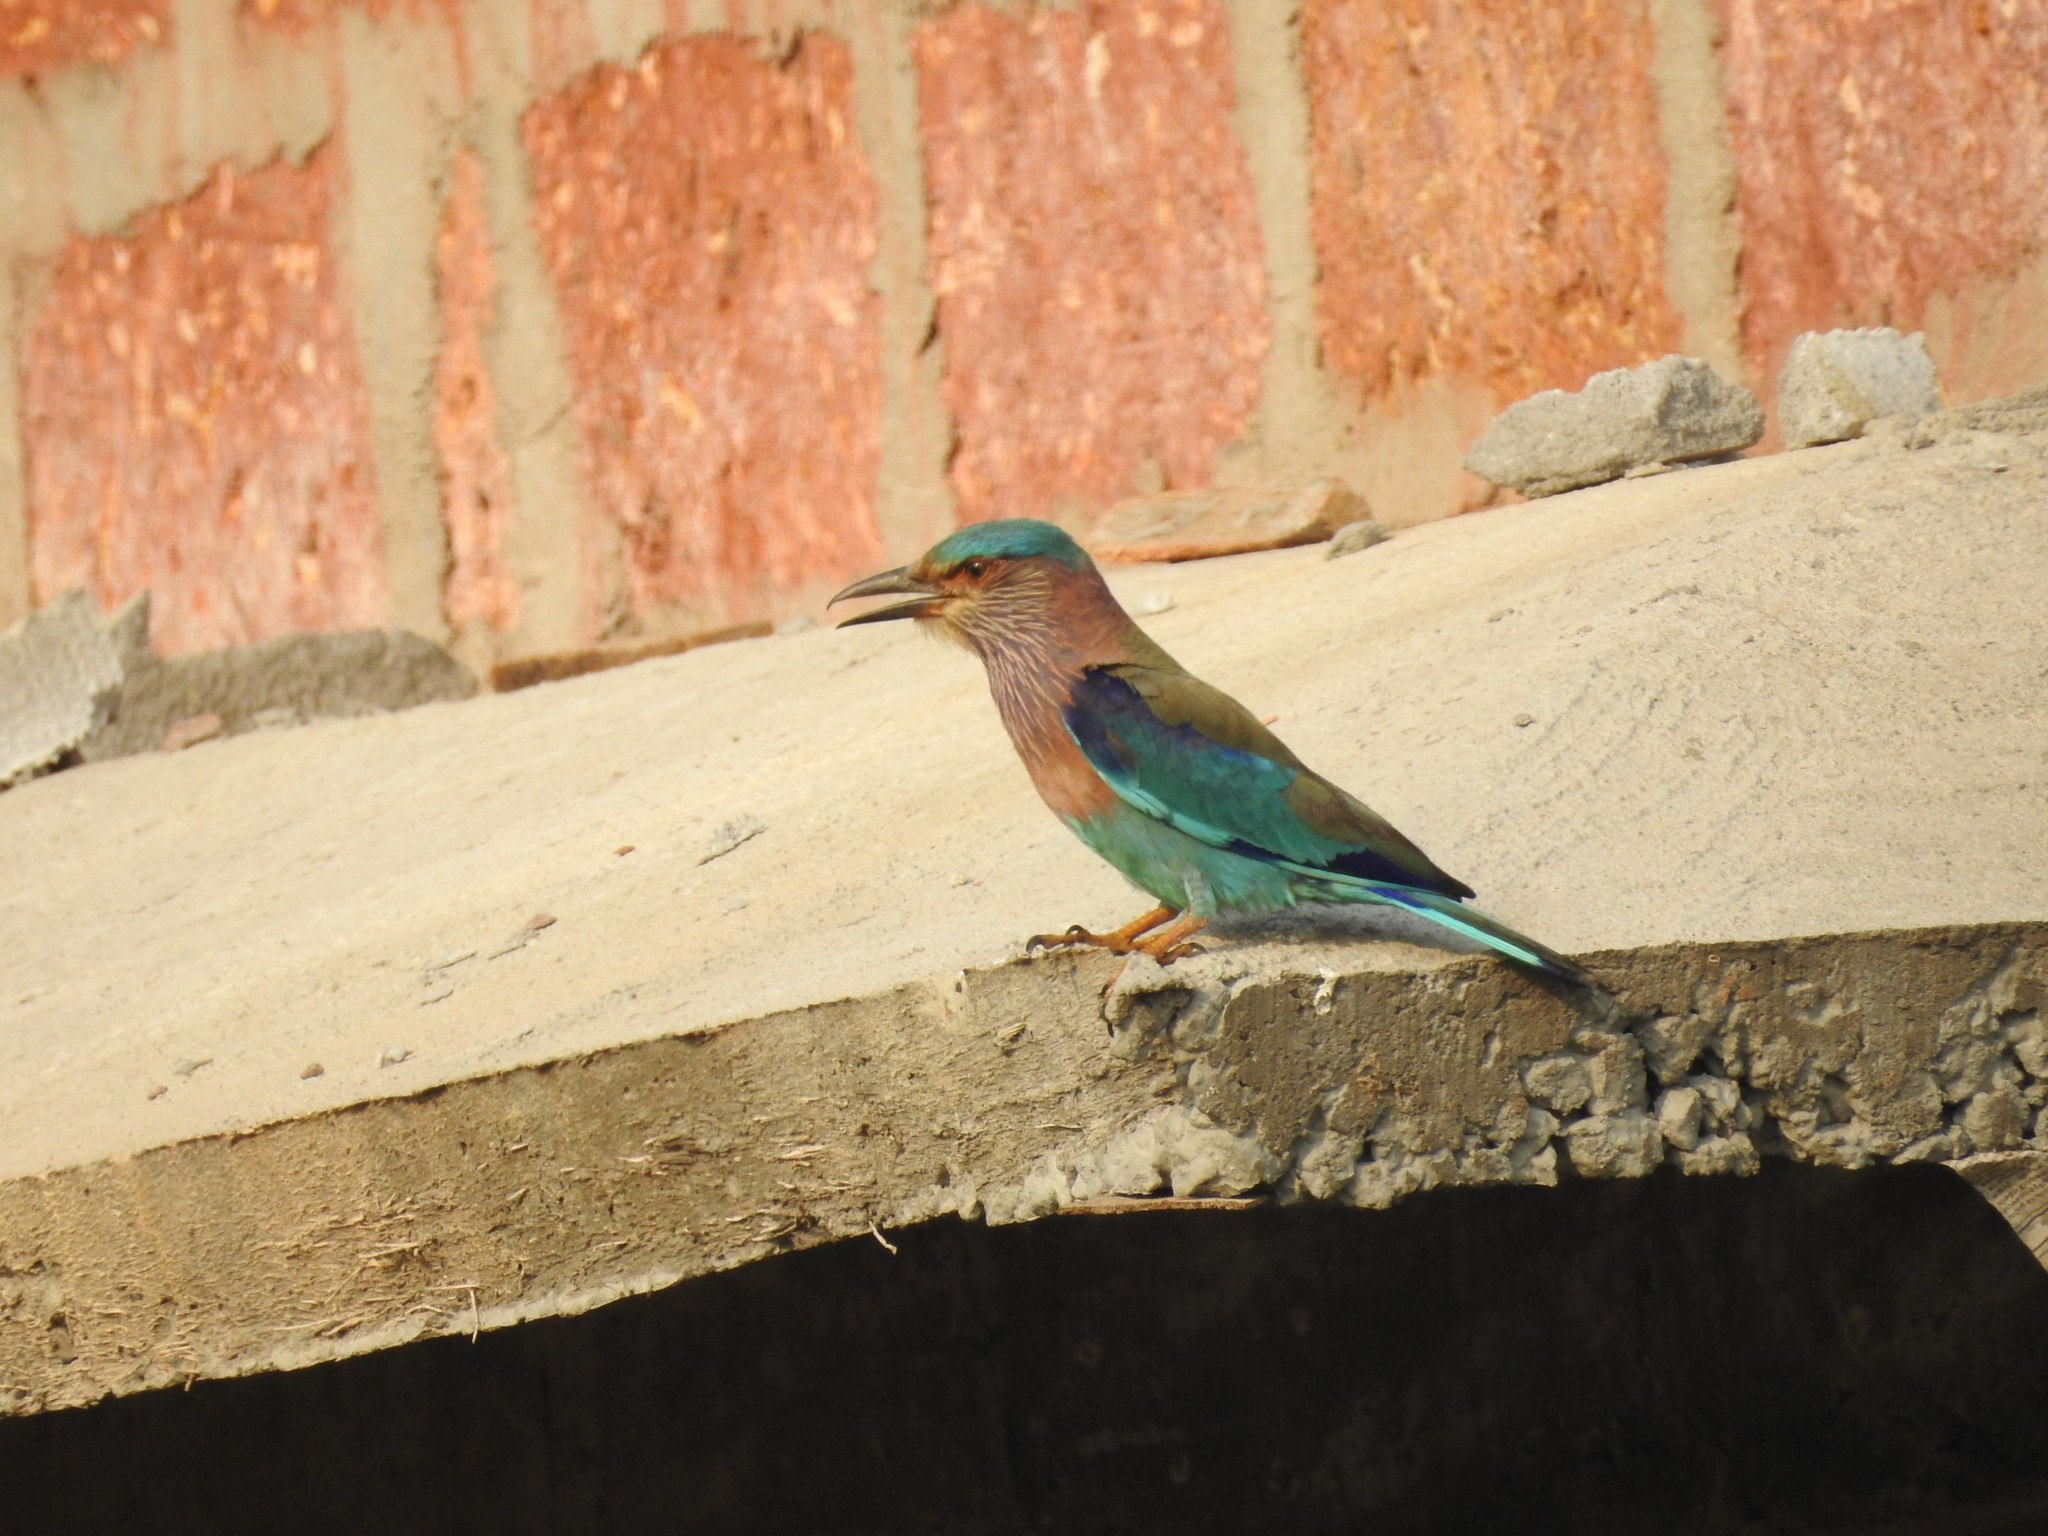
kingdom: Animalia
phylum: Chordata
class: Aves
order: Coraciiformes
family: Coraciidae
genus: Coracias
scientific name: Coracias benghalensis
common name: Indian roller
